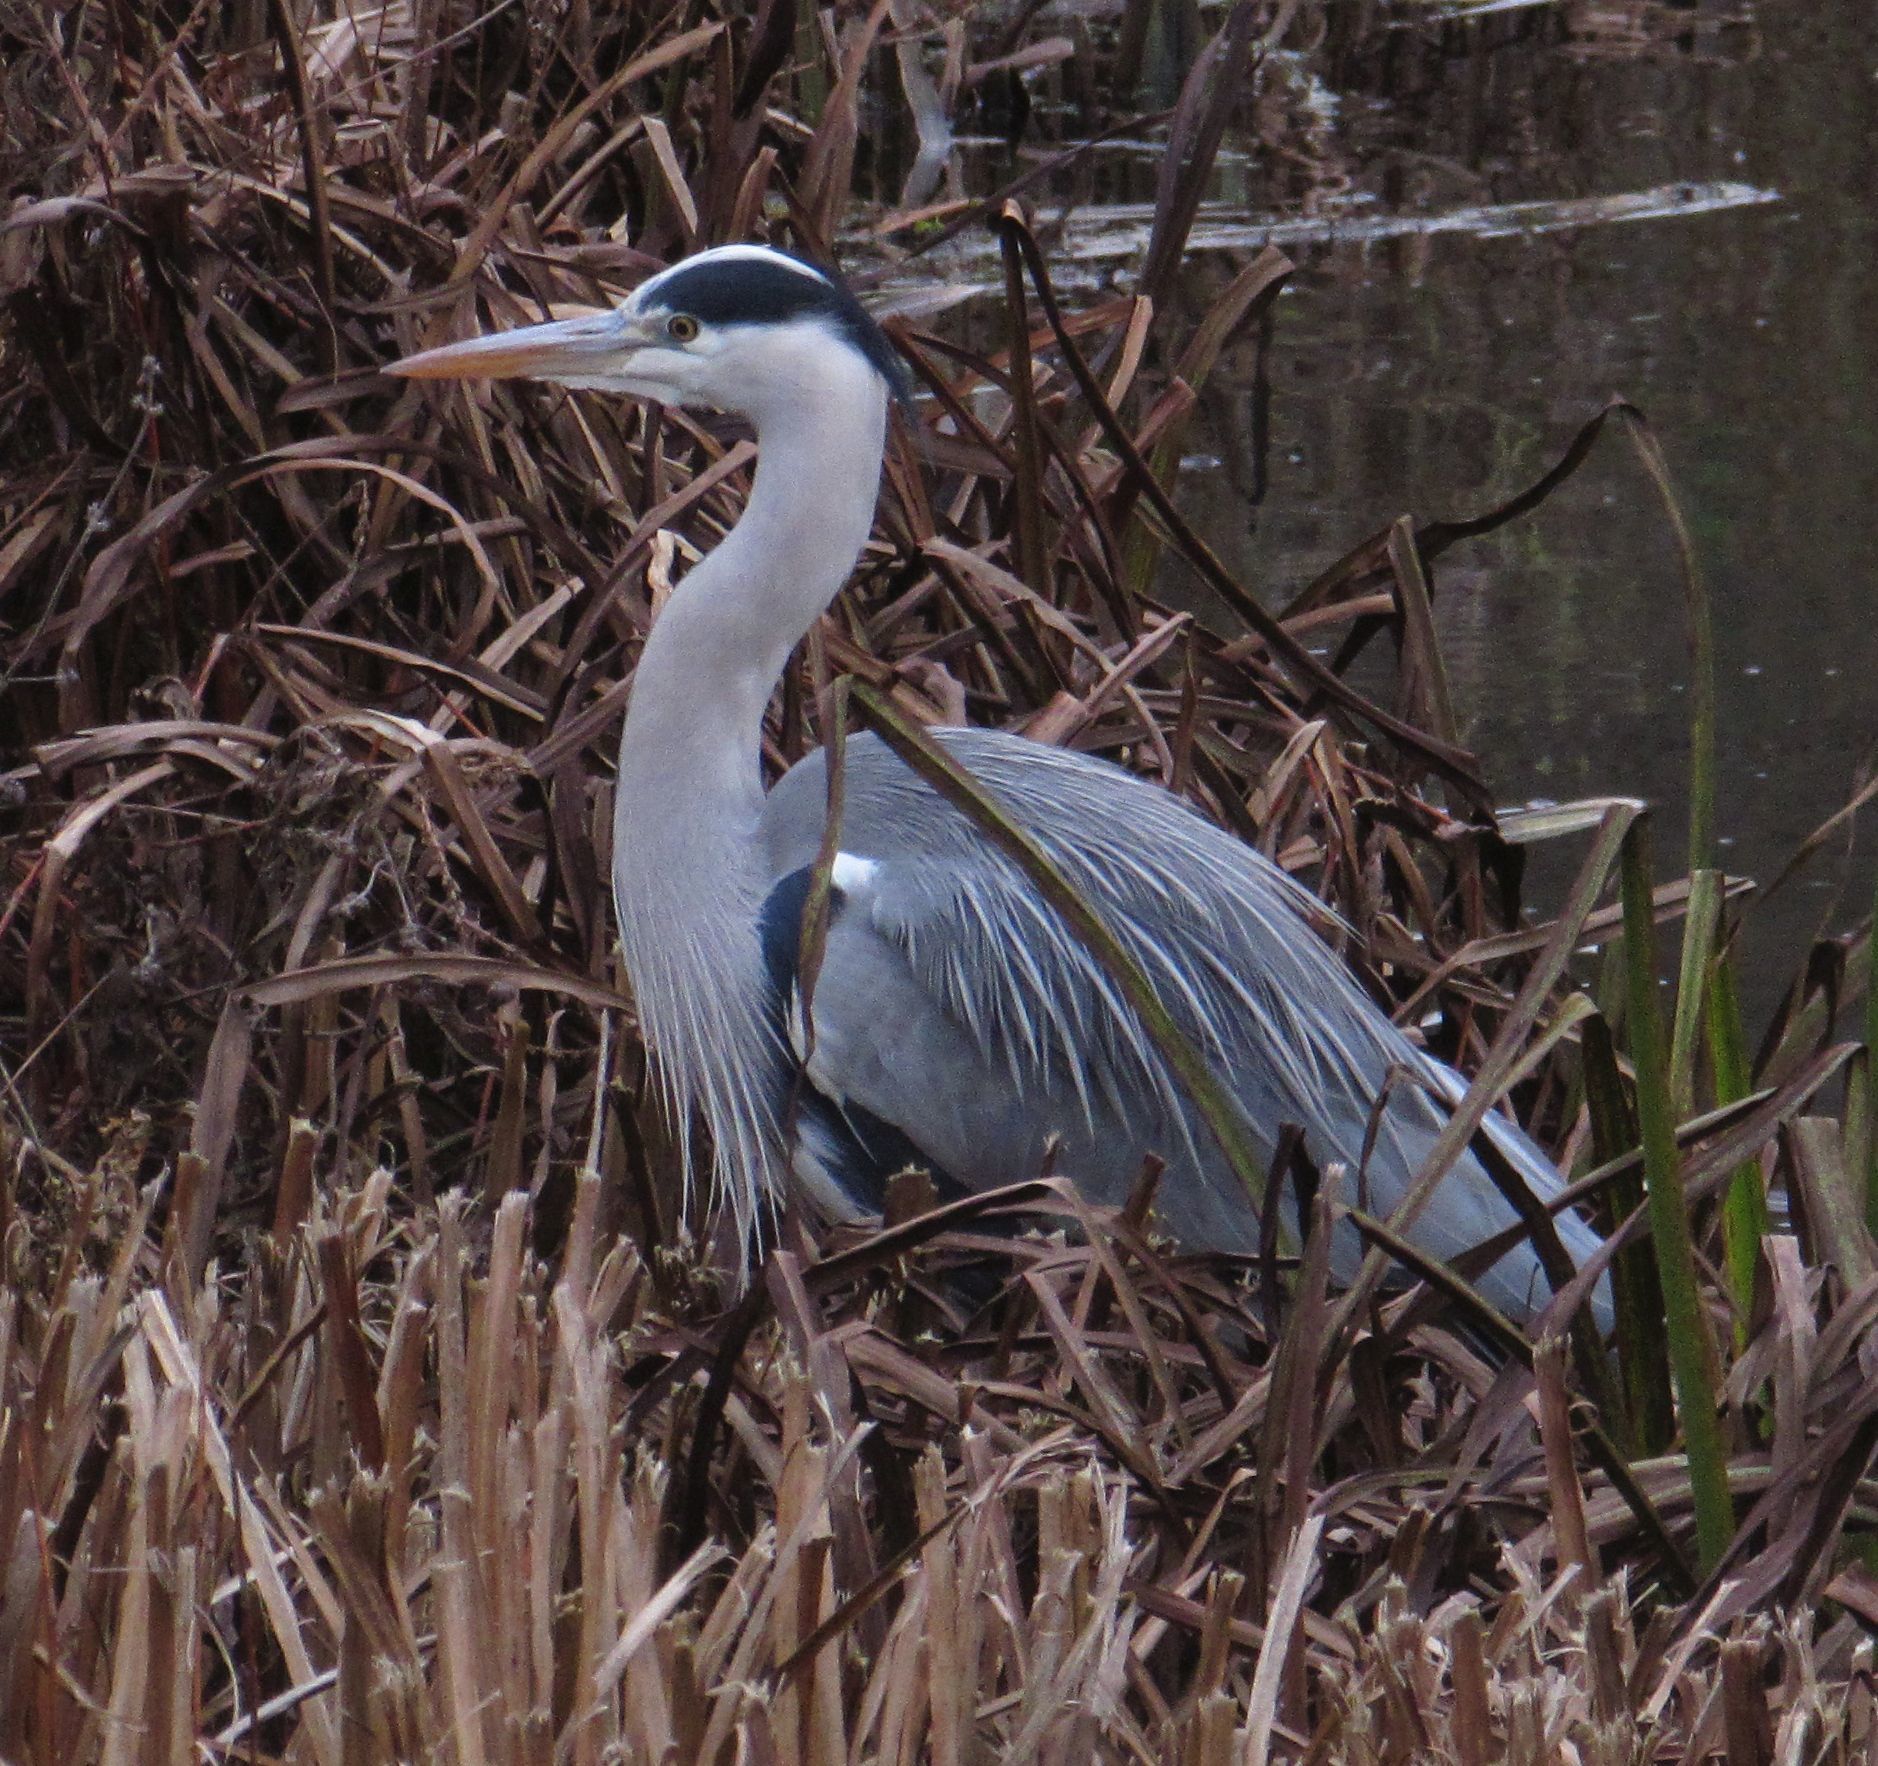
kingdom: Animalia
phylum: Chordata
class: Aves
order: Pelecaniformes
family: Ardeidae
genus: Ardea
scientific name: Ardea cinerea
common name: Grey heron
